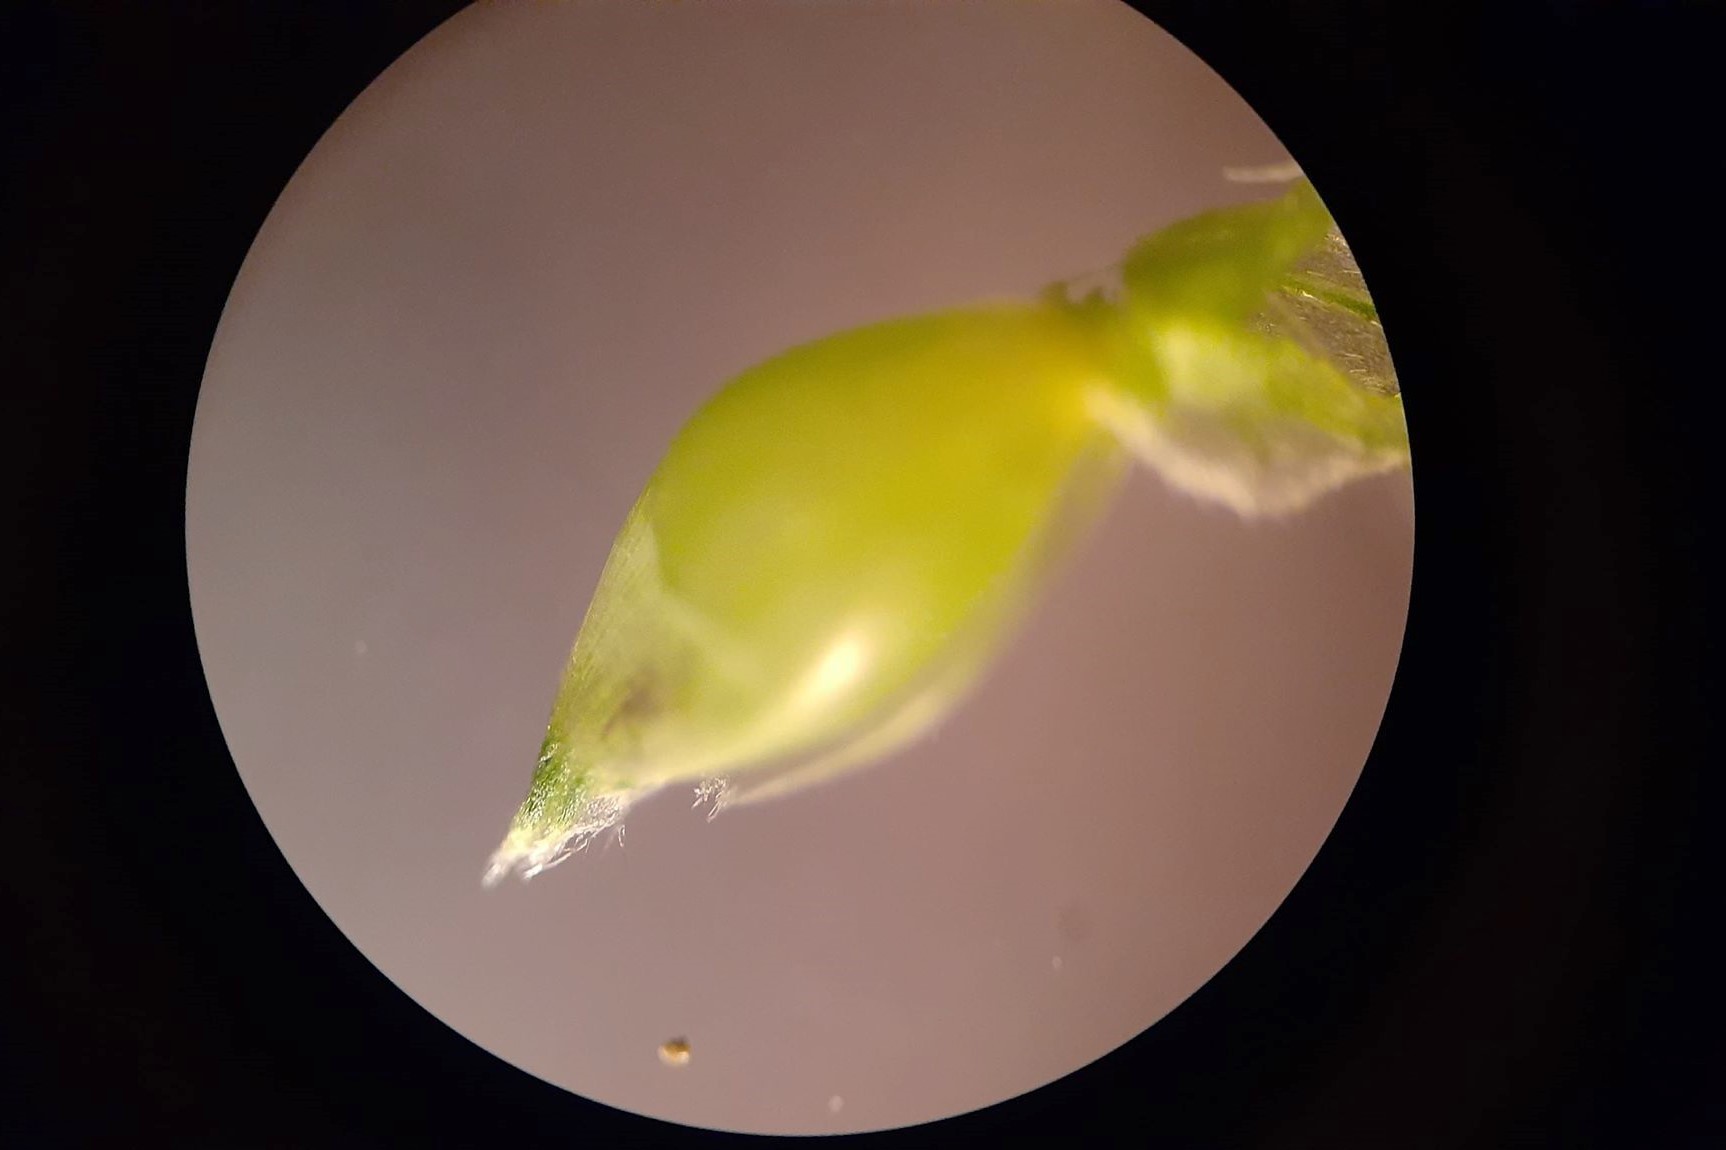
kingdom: Plantae
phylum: Tracheophyta
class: Liliopsida
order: Poales
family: Poaceae
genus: Echinochloa
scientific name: Echinochloa crus-galli
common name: Cockspur
